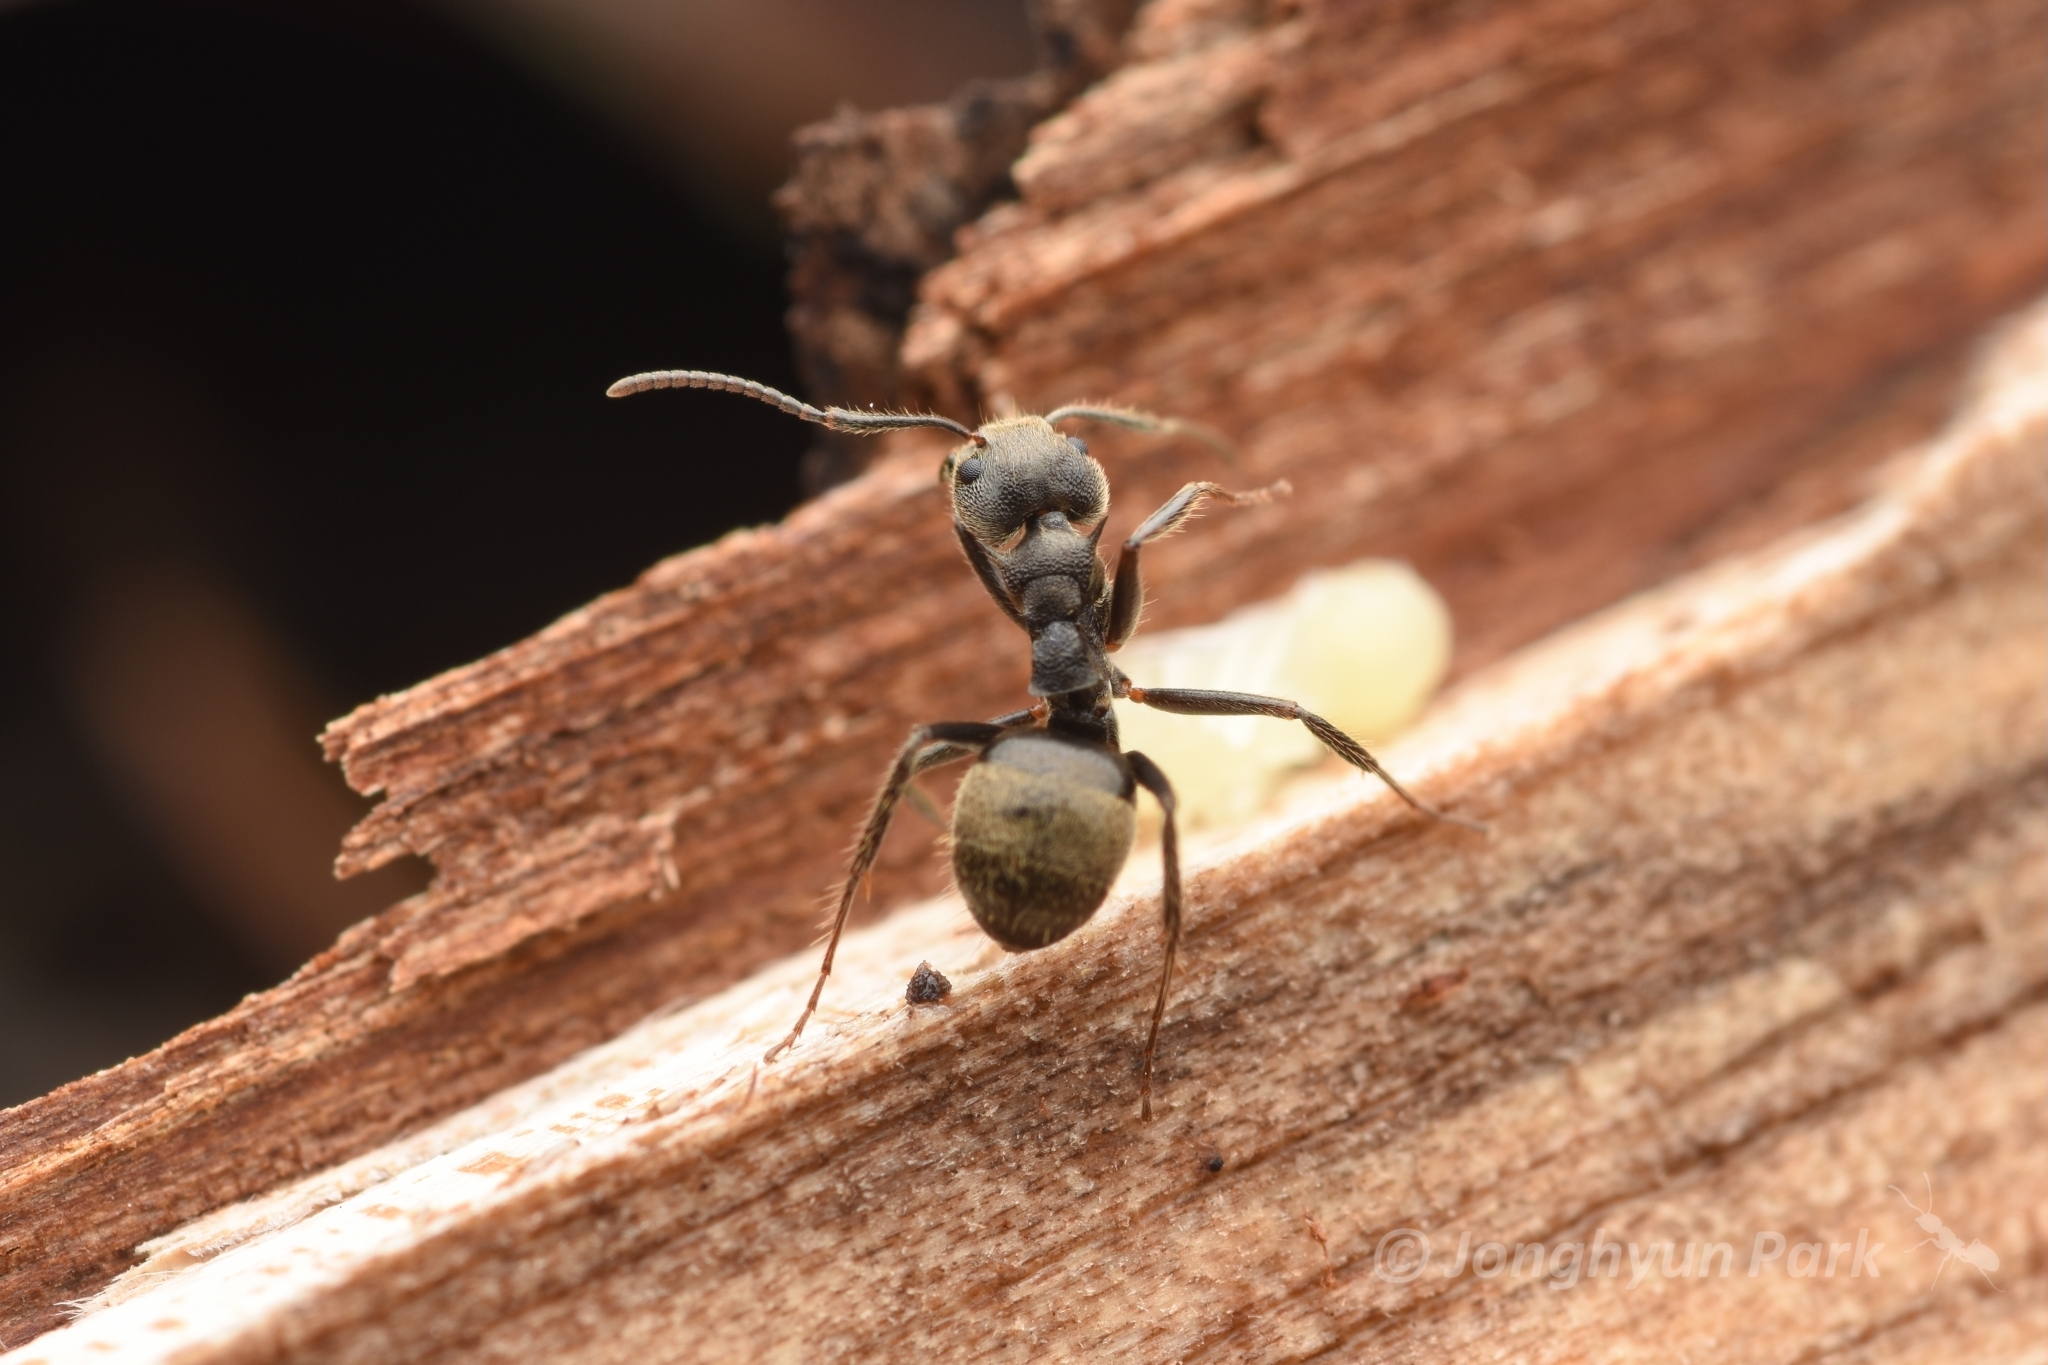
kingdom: Animalia
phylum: Arthropoda
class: Insecta
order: Hymenoptera
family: Formicidae
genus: Dolichoderus
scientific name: Dolichoderus bispinosus
